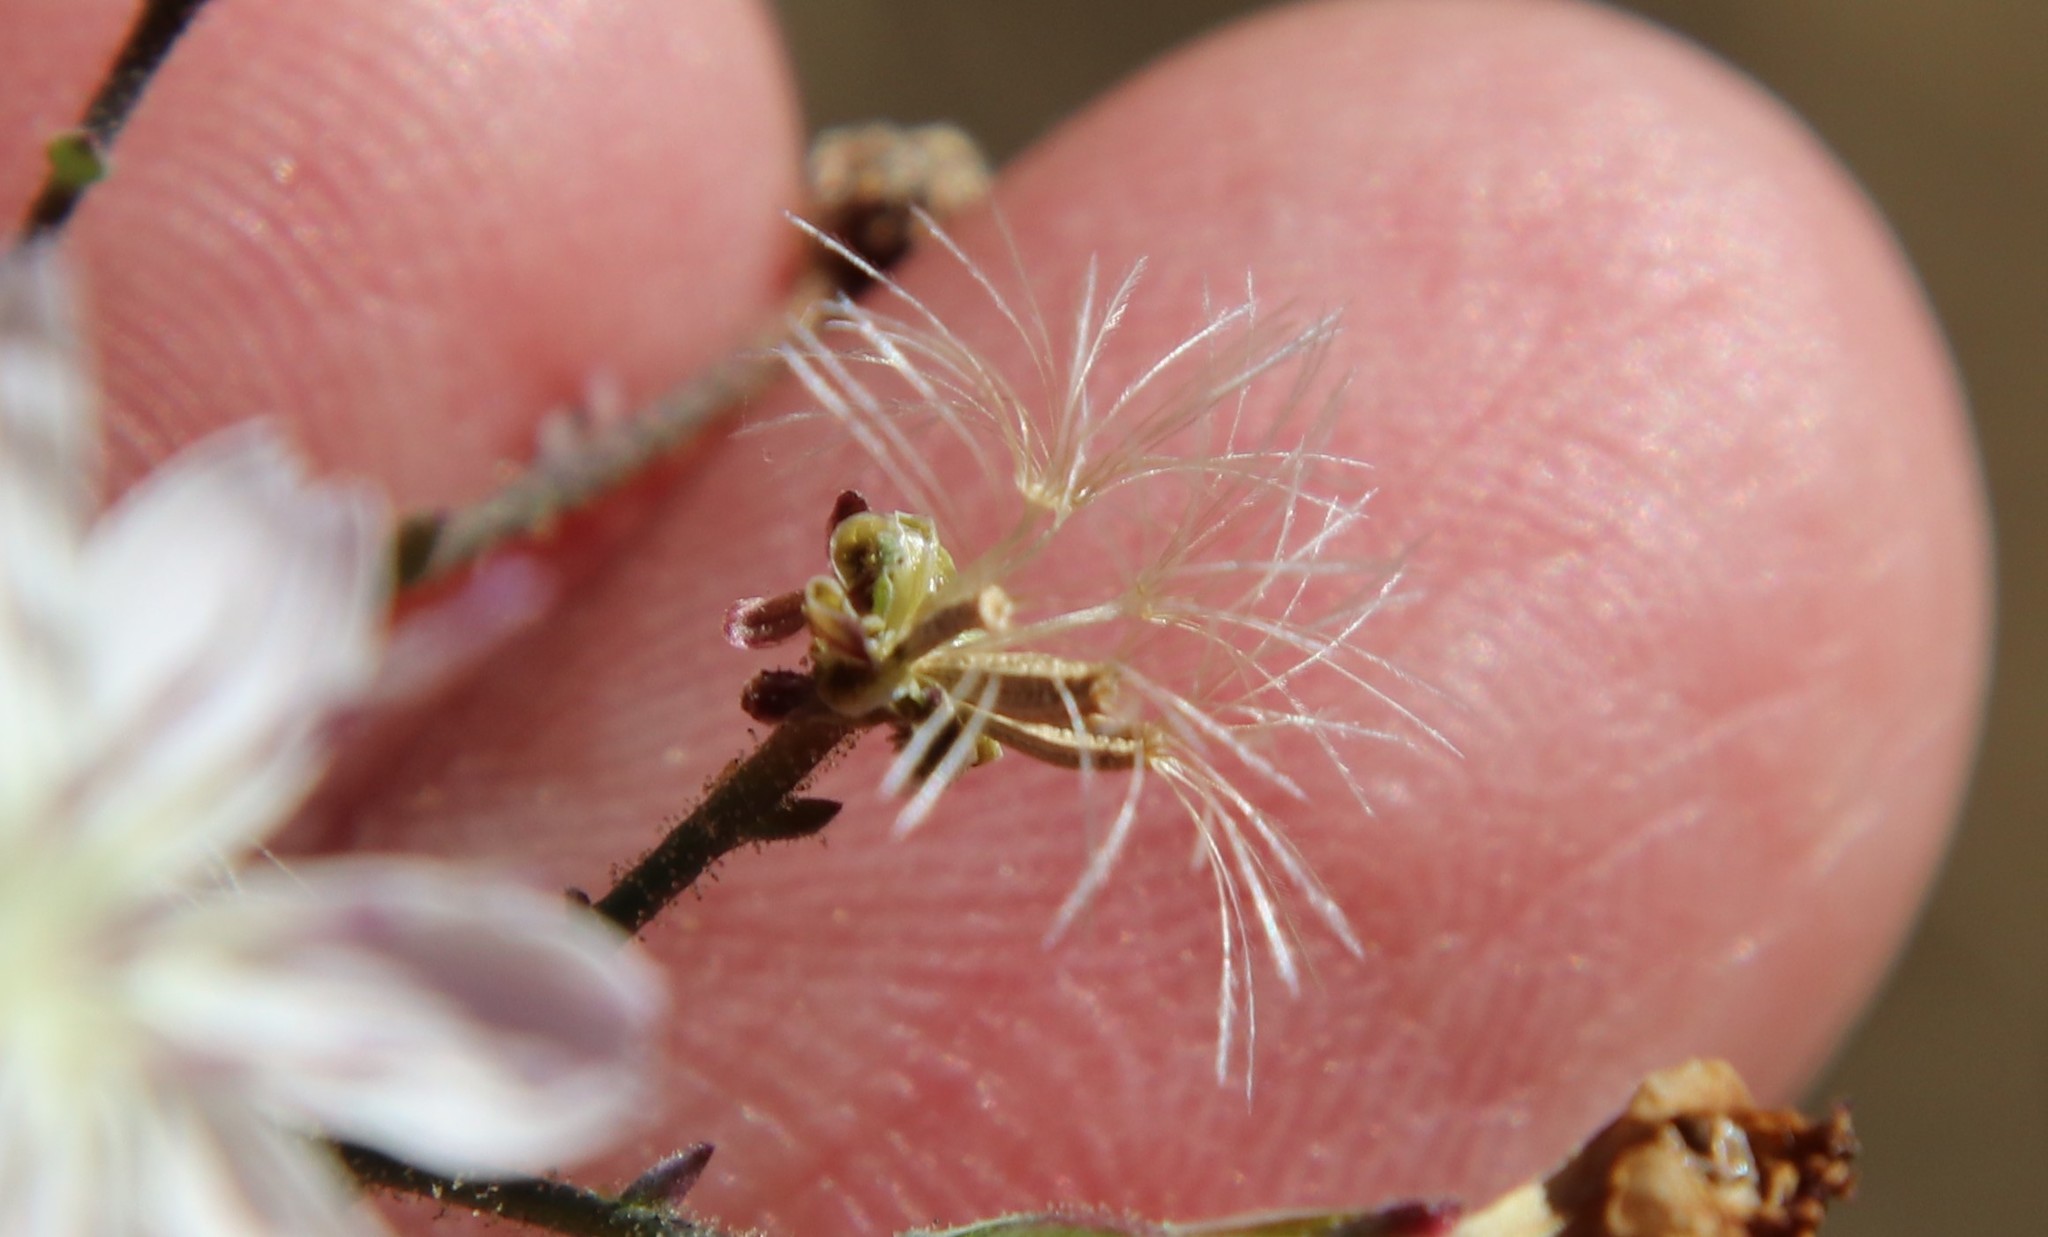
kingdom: Plantae
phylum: Tracheophyta
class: Magnoliopsida
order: Asterales
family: Asteraceae
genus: Stephanomeria
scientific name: Stephanomeria exigua
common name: Small wirelettuce
